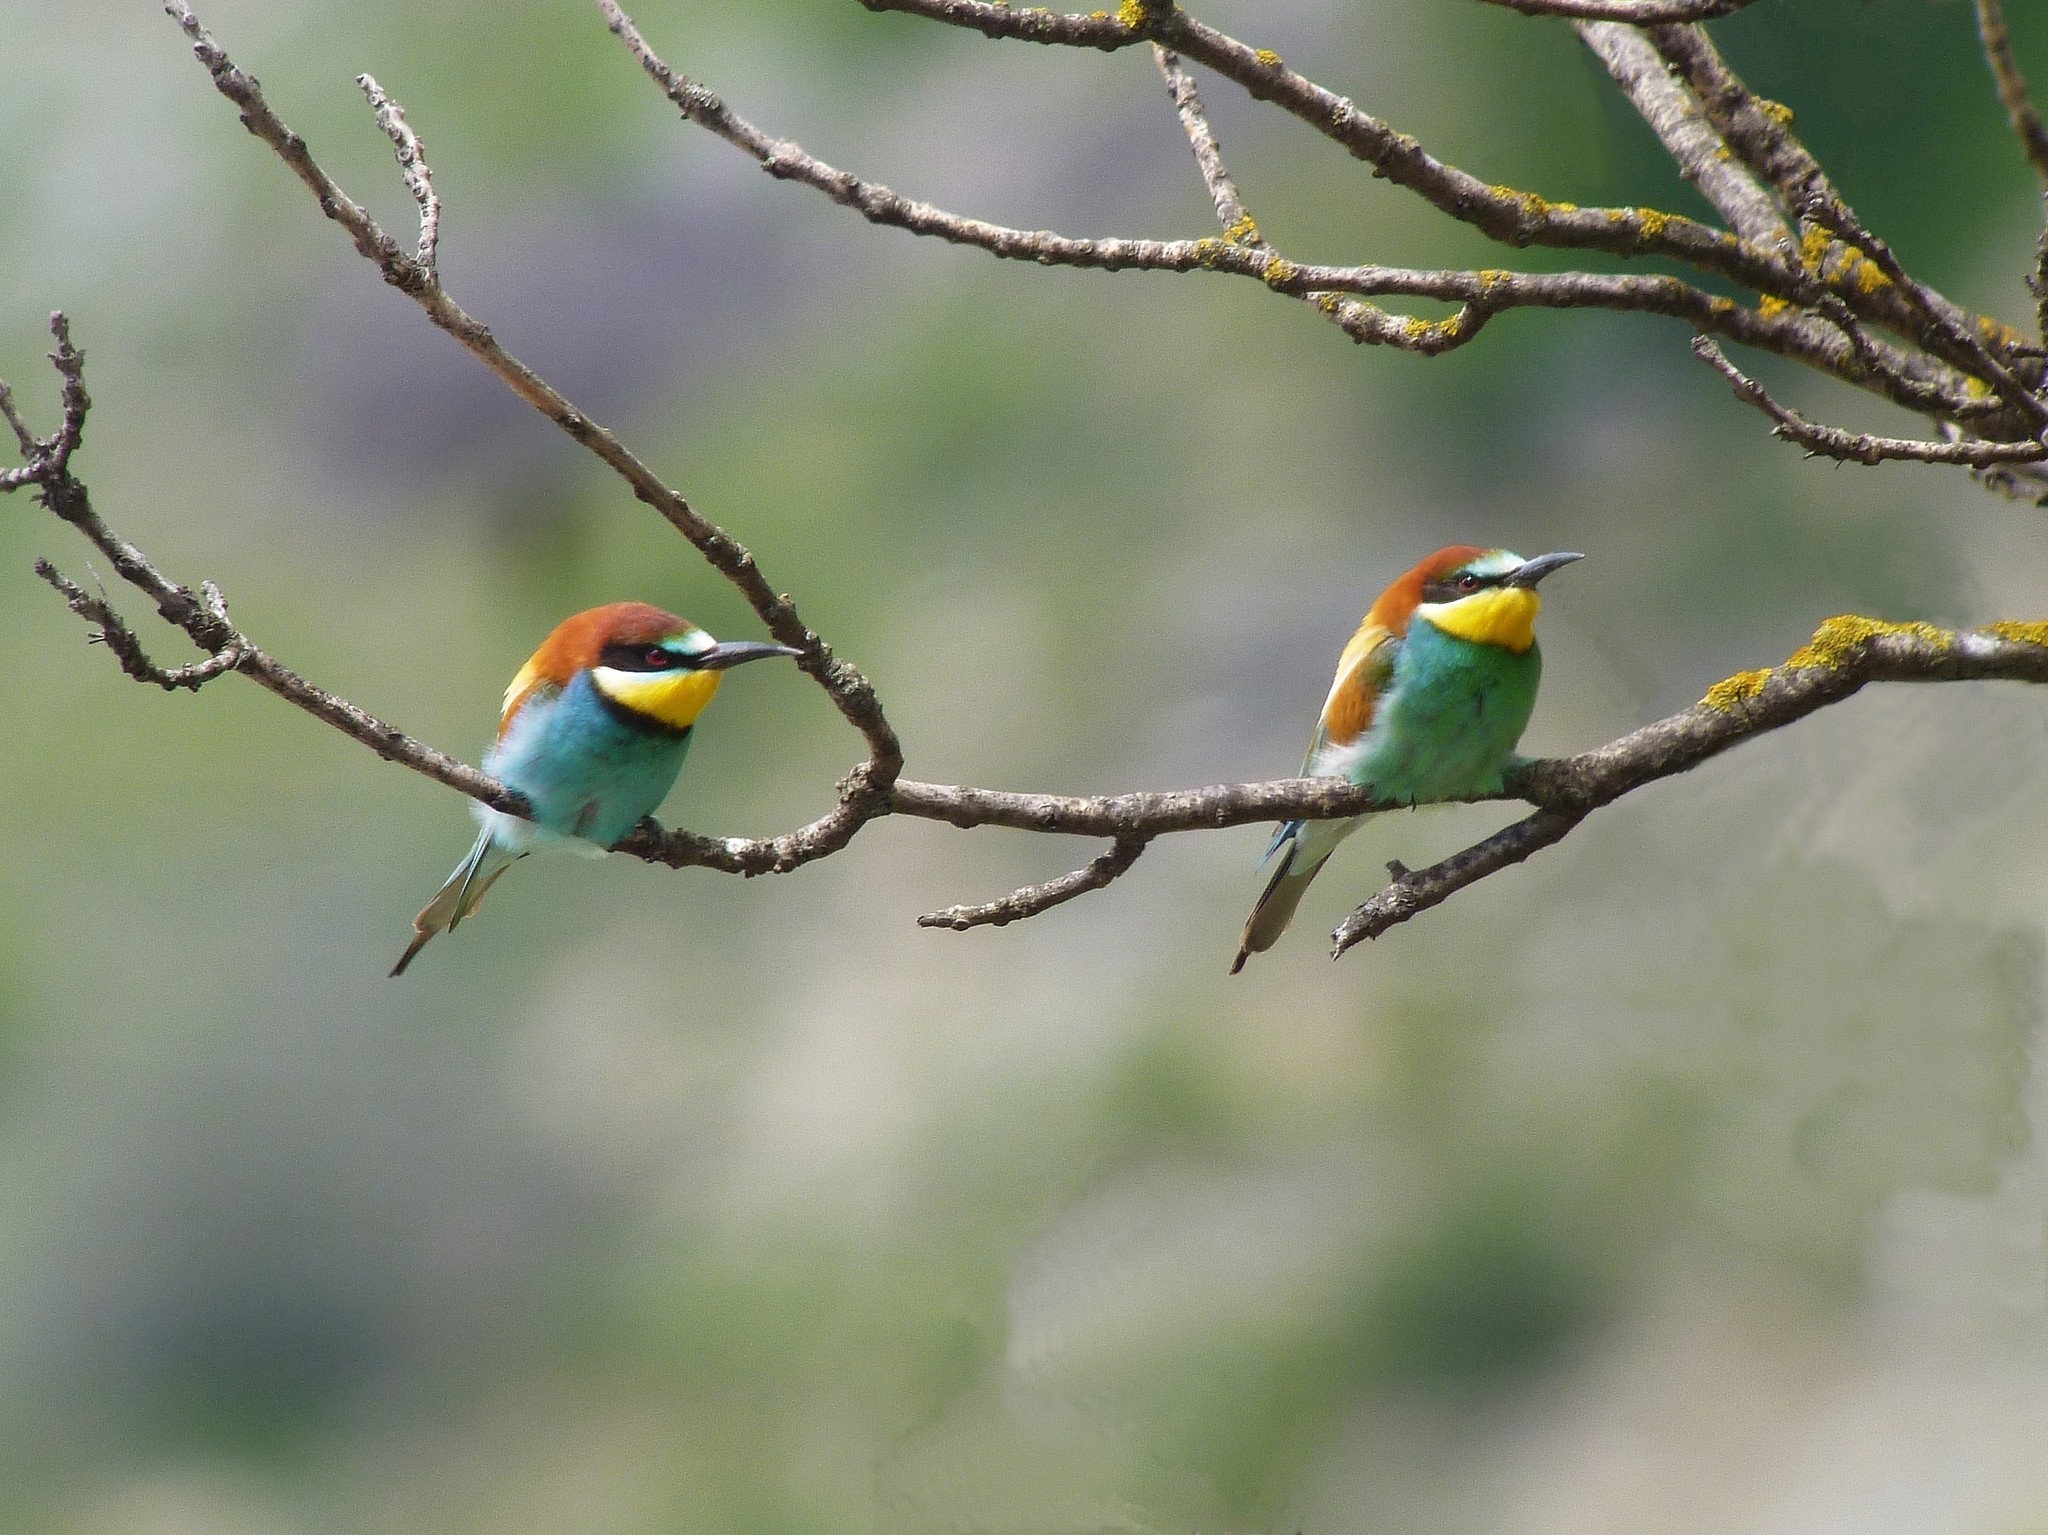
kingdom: Animalia
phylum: Chordata
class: Aves
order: Coraciiformes
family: Meropidae
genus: Merops
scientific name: Merops apiaster
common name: European bee-eater
